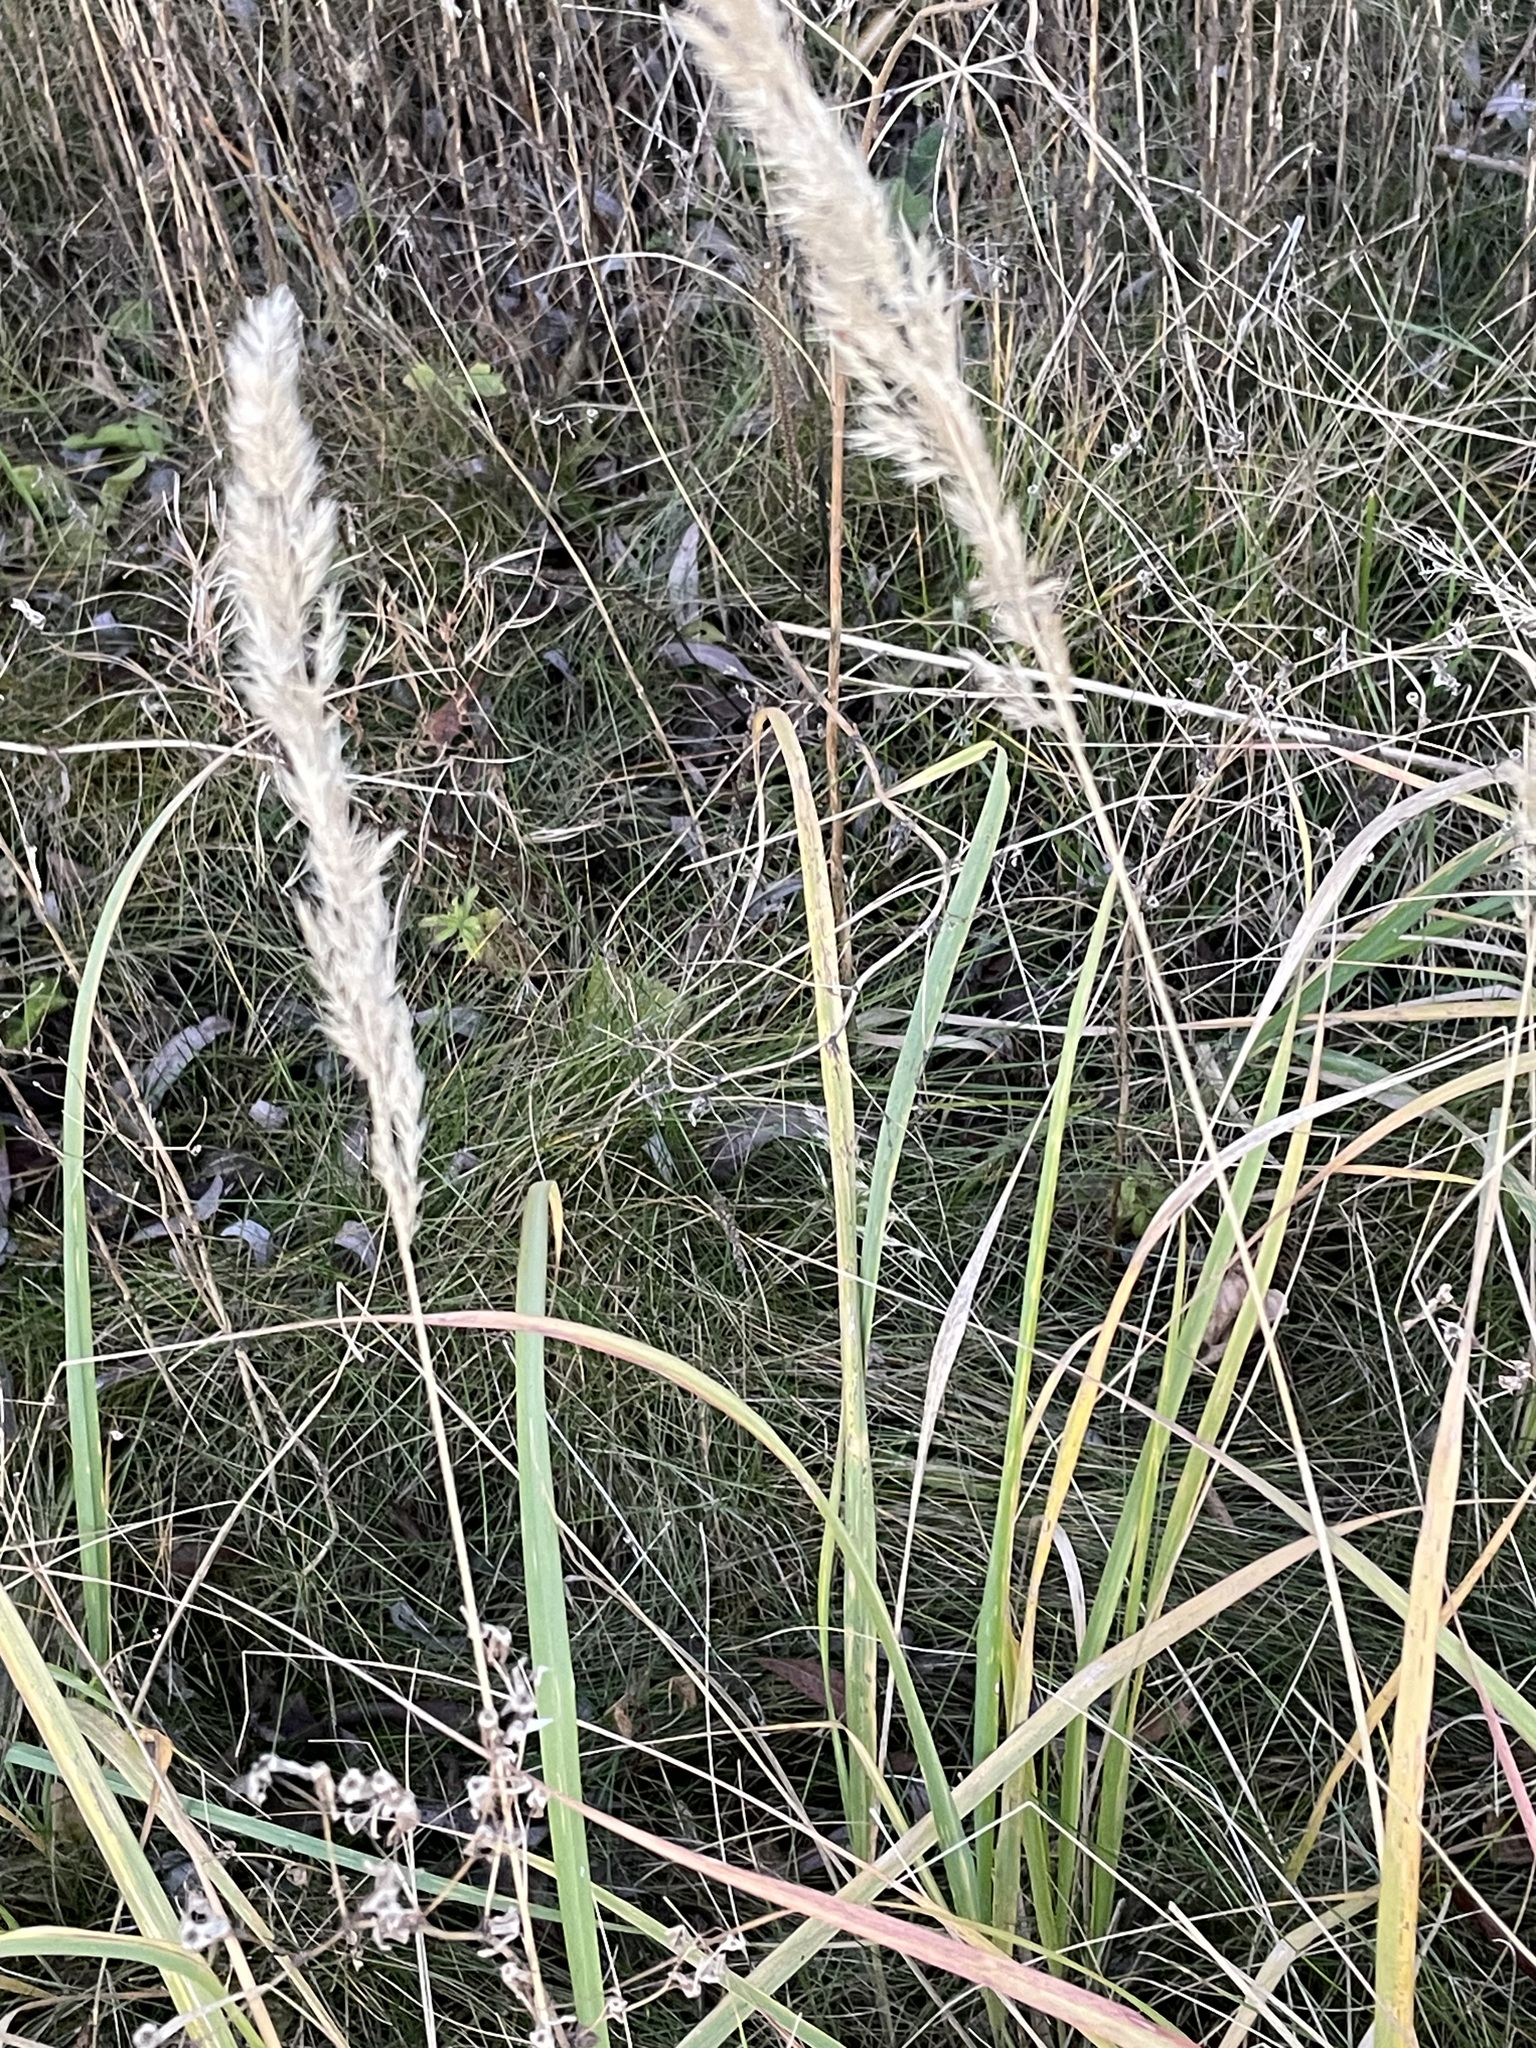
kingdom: Plantae
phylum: Tracheophyta
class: Liliopsida
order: Poales
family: Poaceae
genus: Calamagrostis
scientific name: Calamagrostis epigejos
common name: Wood small-reed
